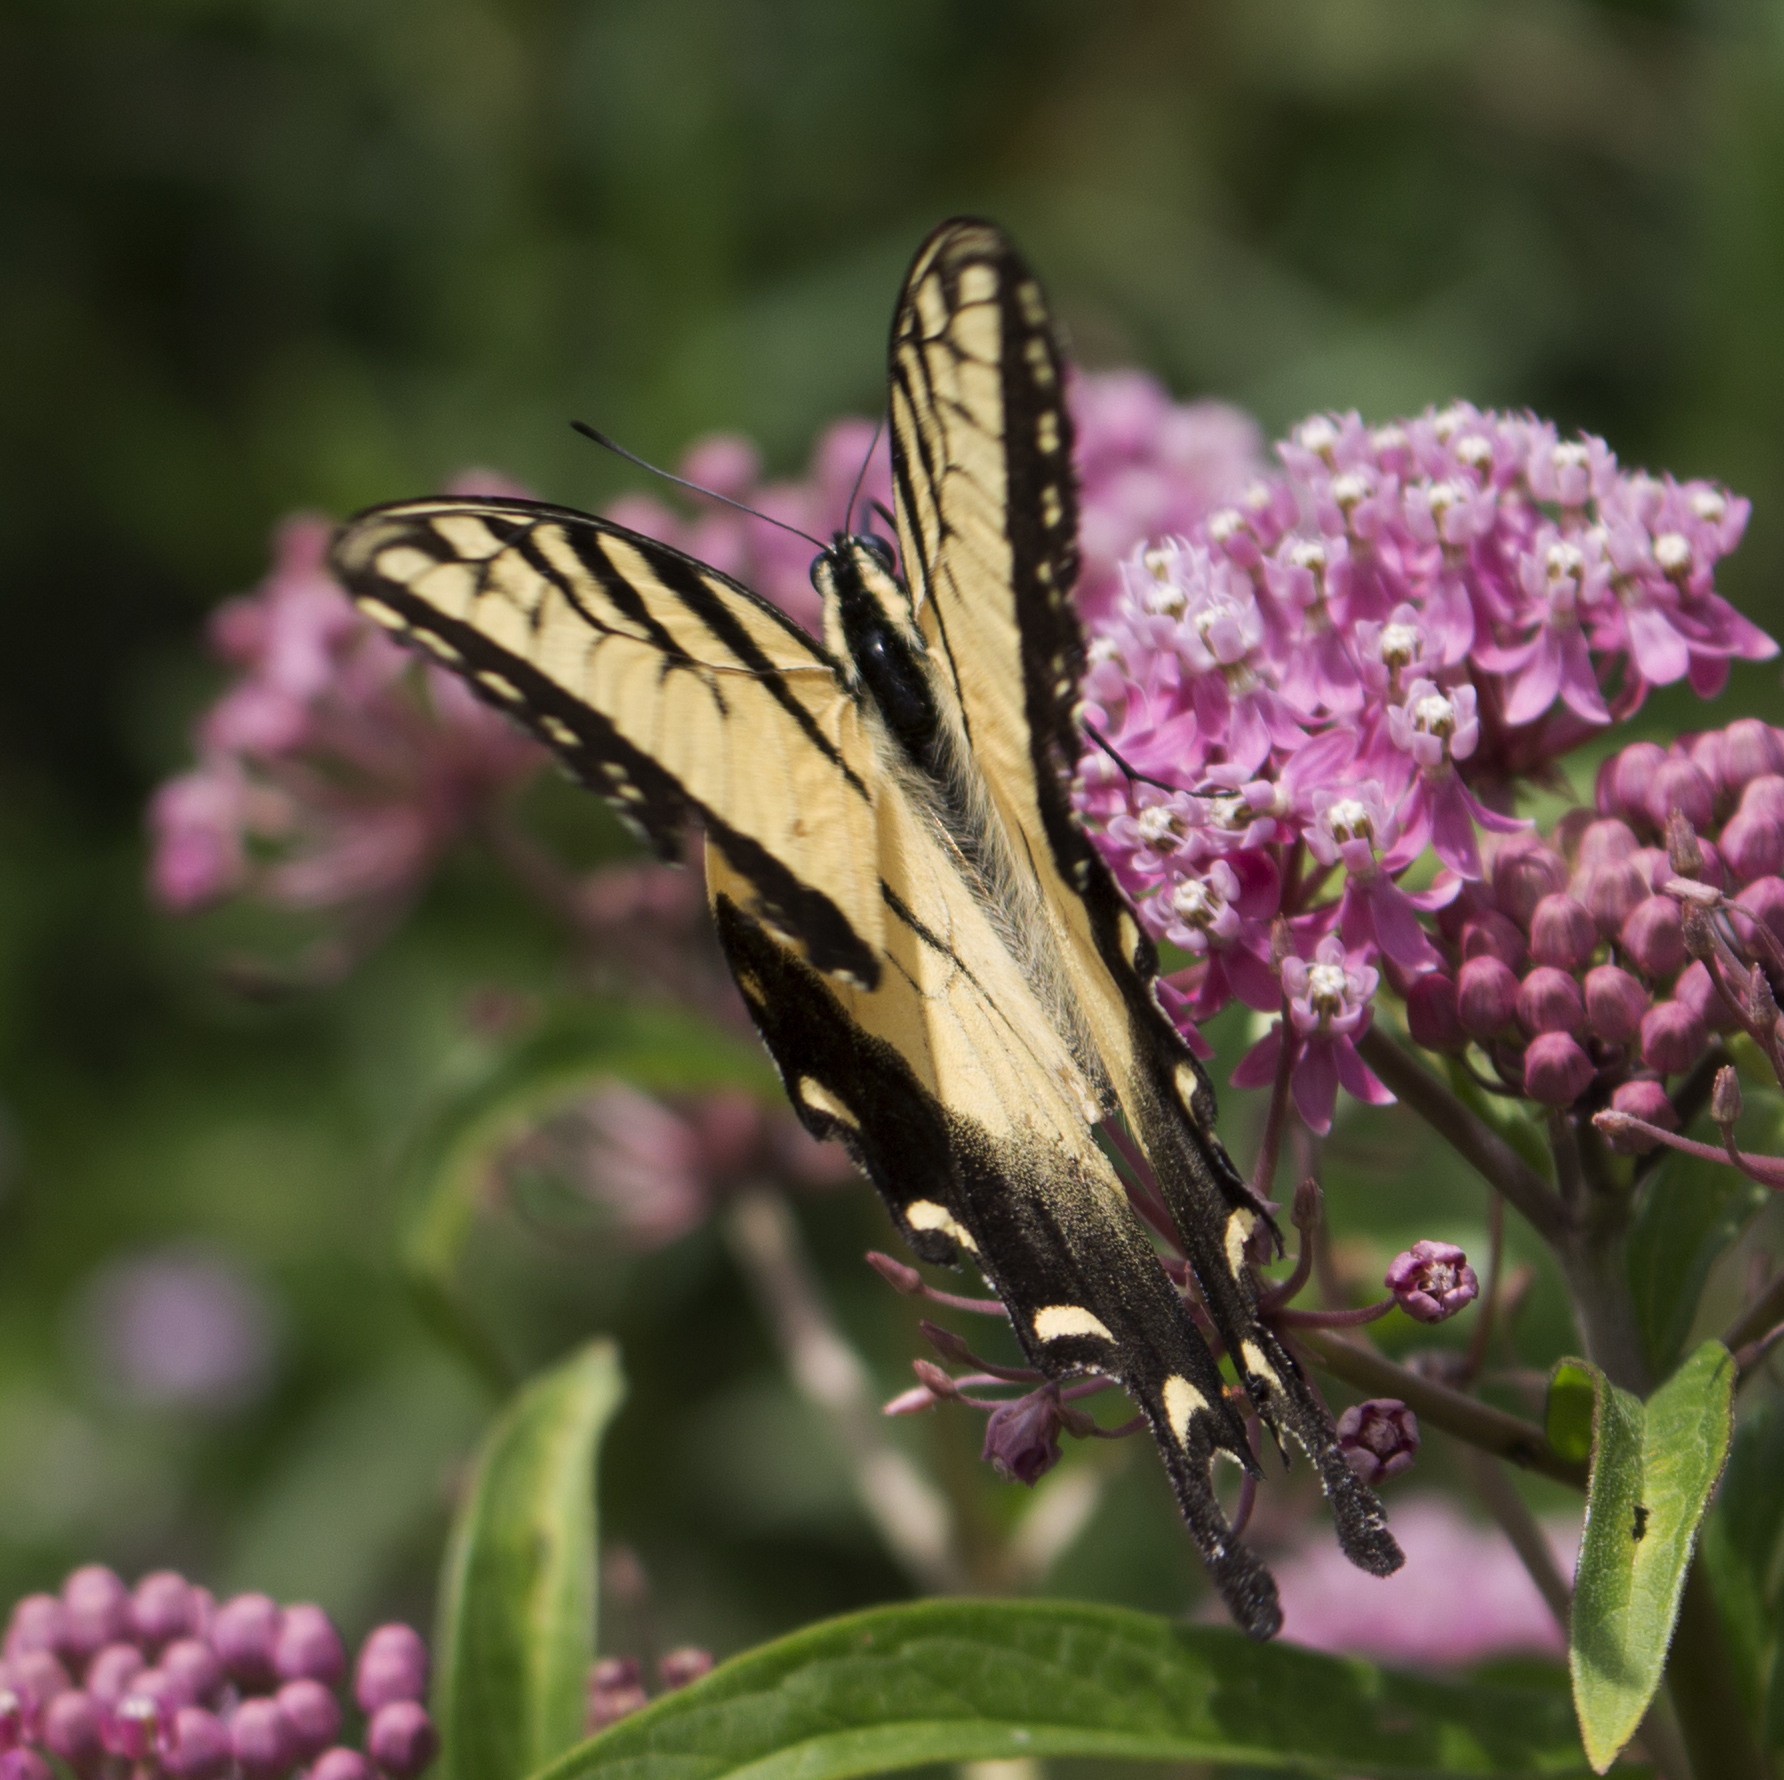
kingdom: Animalia
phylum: Arthropoda
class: Insecta
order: Lepidoptera
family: Papilionidae
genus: Papilio
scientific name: Papilio glaucus
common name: Tiger swallowtail
